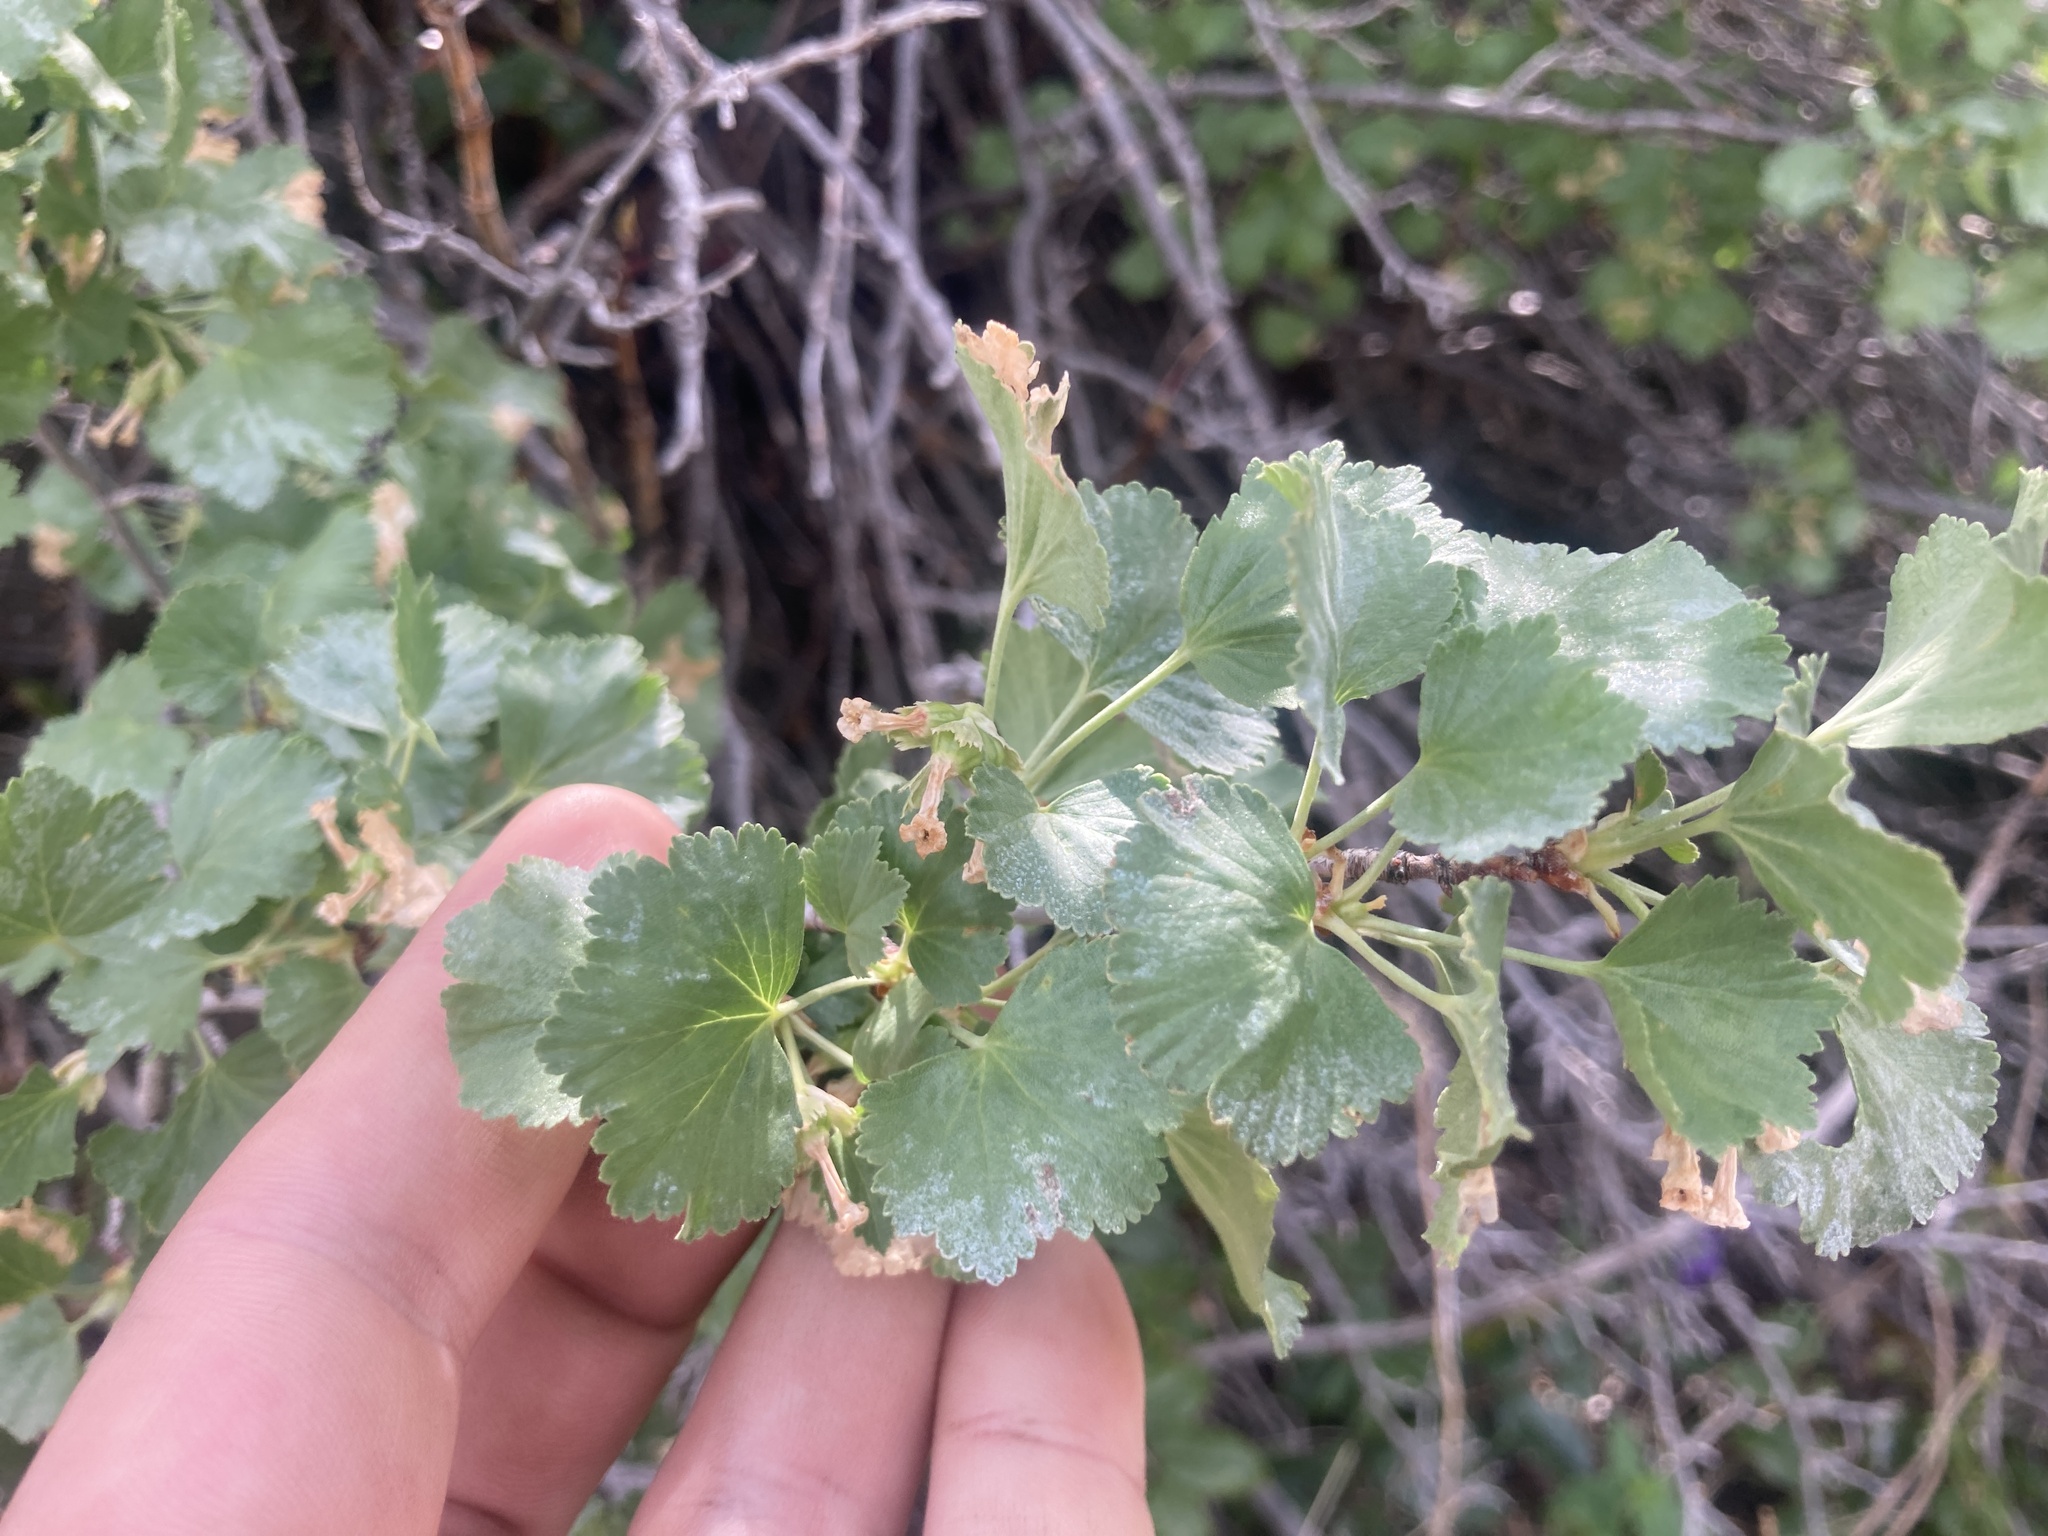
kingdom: Plantae
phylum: Tracheophyta
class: Magnoliopsida
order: Saxifragales
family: Grossulariaceae
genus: Ribes
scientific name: Ribes cereum
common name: Wax currant
